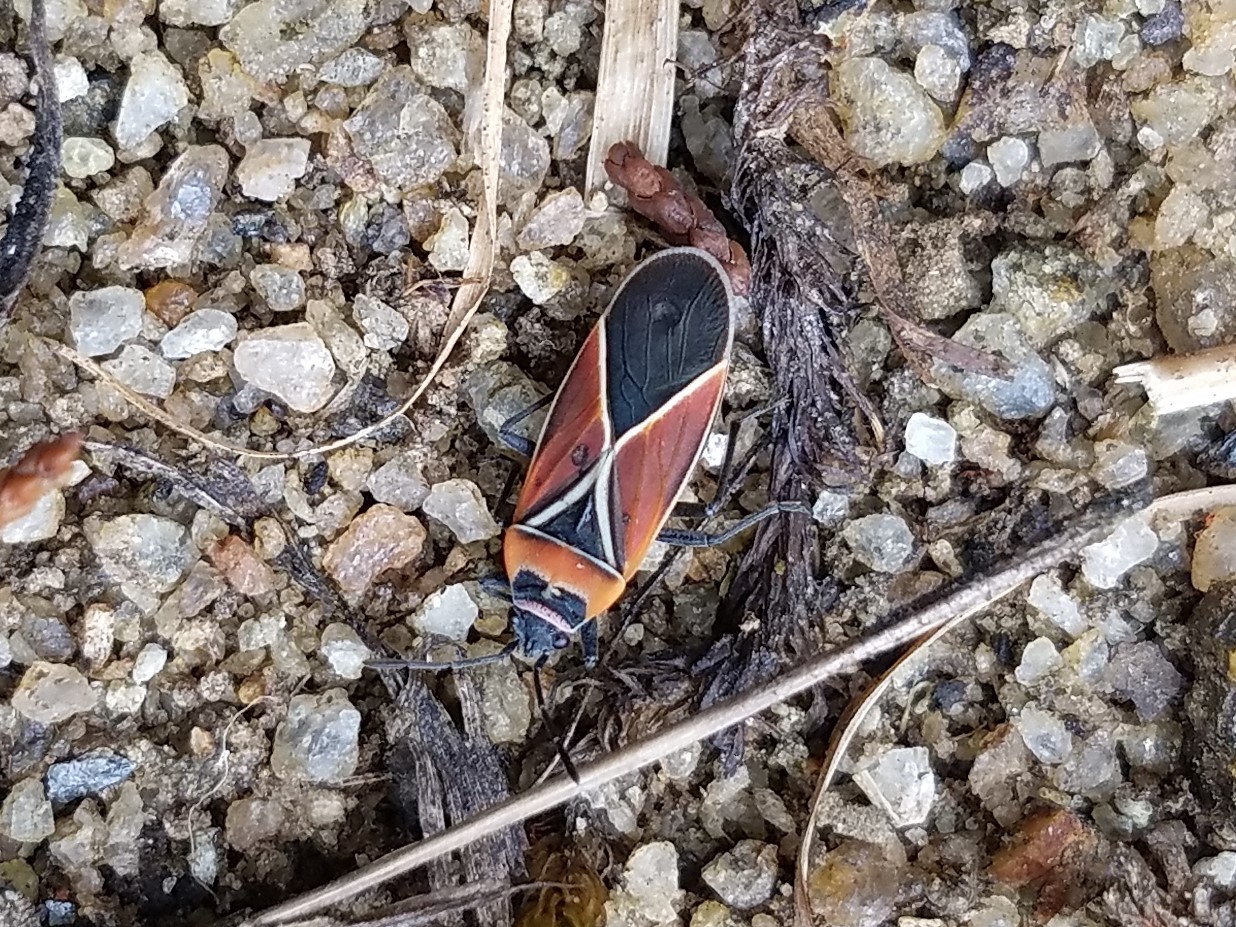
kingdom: Animalia
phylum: Arthropoda
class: Insecta
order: Hemiptera
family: Lygaeidae
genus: Neacoryphus
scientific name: Neacoryphus bicrucis
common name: Lygaeid bug
